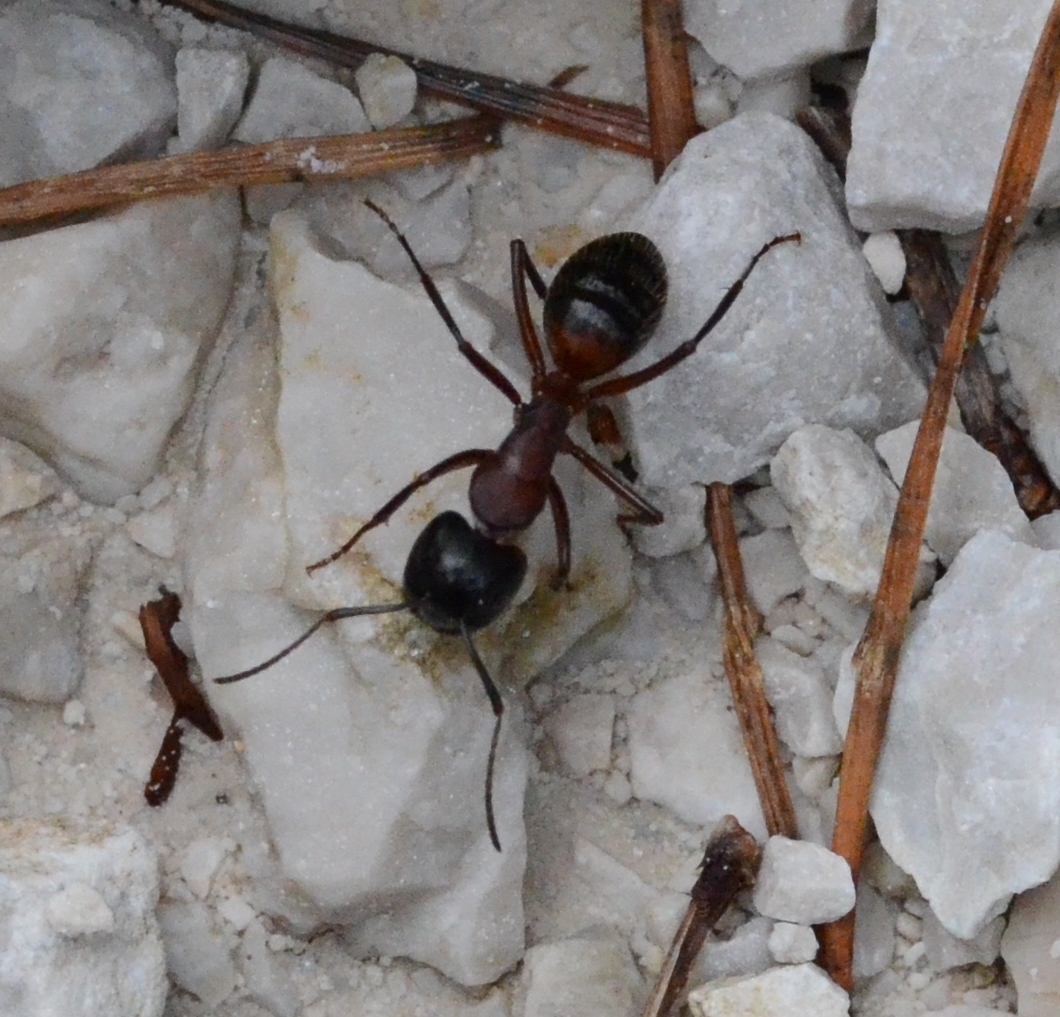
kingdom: Animalia
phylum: Arthropoda
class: Insecta
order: Hymenoptera
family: Formicidae
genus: Camponotus
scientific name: Camponotus ligniperdus
